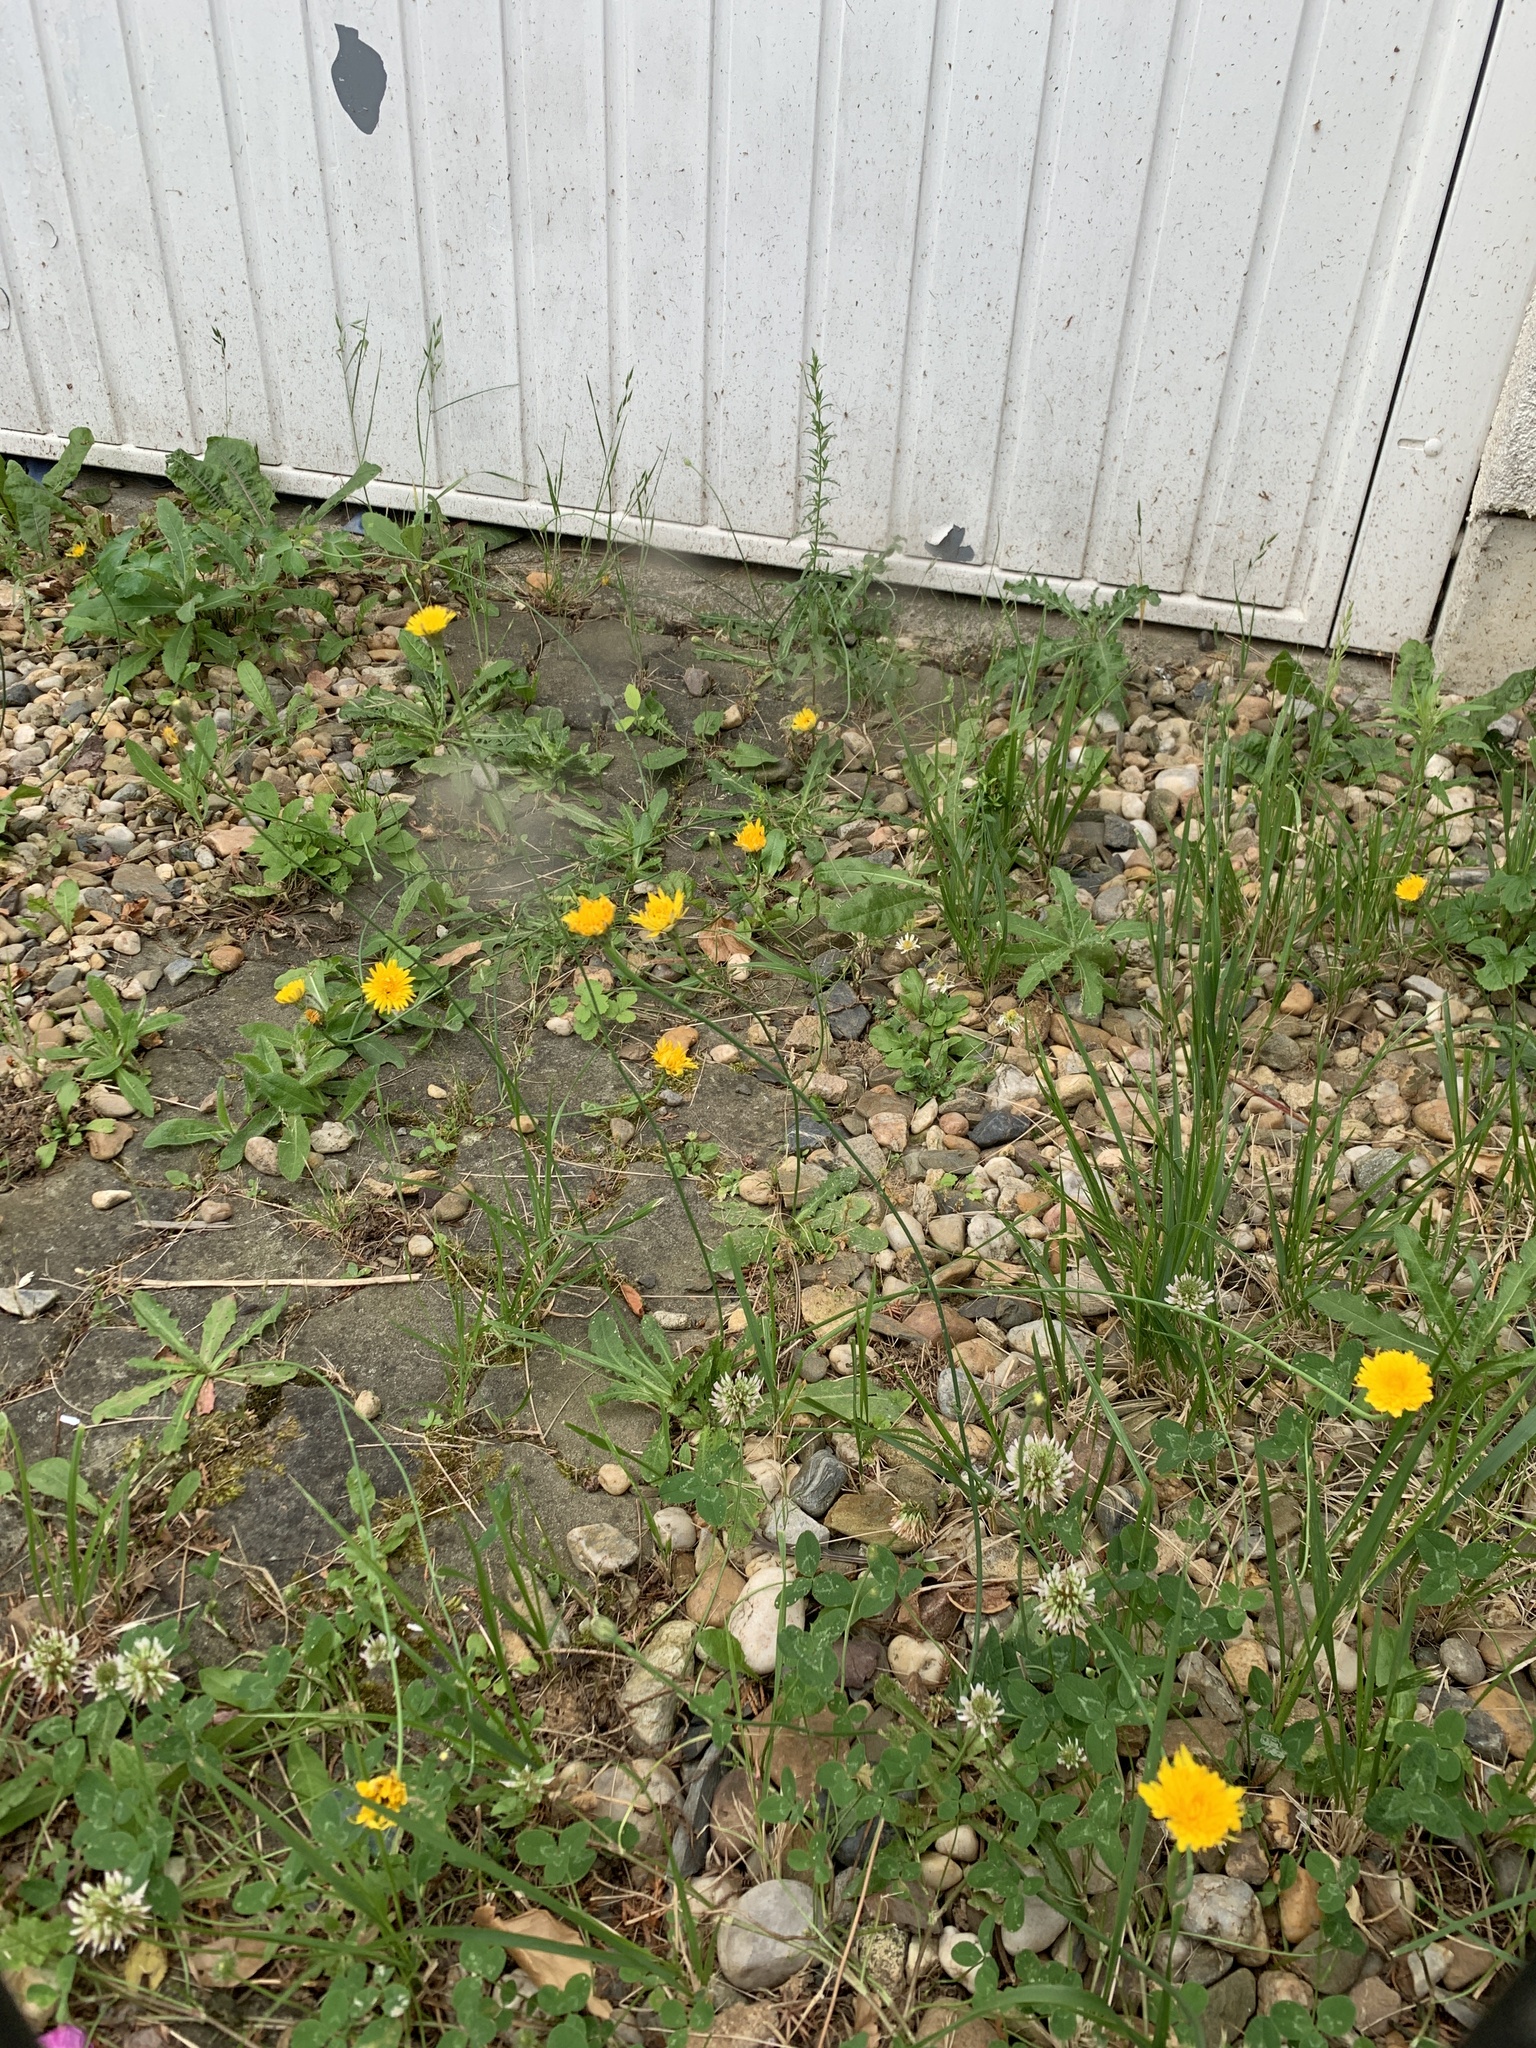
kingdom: Plantae
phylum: Tracheophyta
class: Magnoliopsida
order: Asterales
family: Asteraceae
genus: Hypochaeris
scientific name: Hypochaeris radicata
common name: Flatweed
